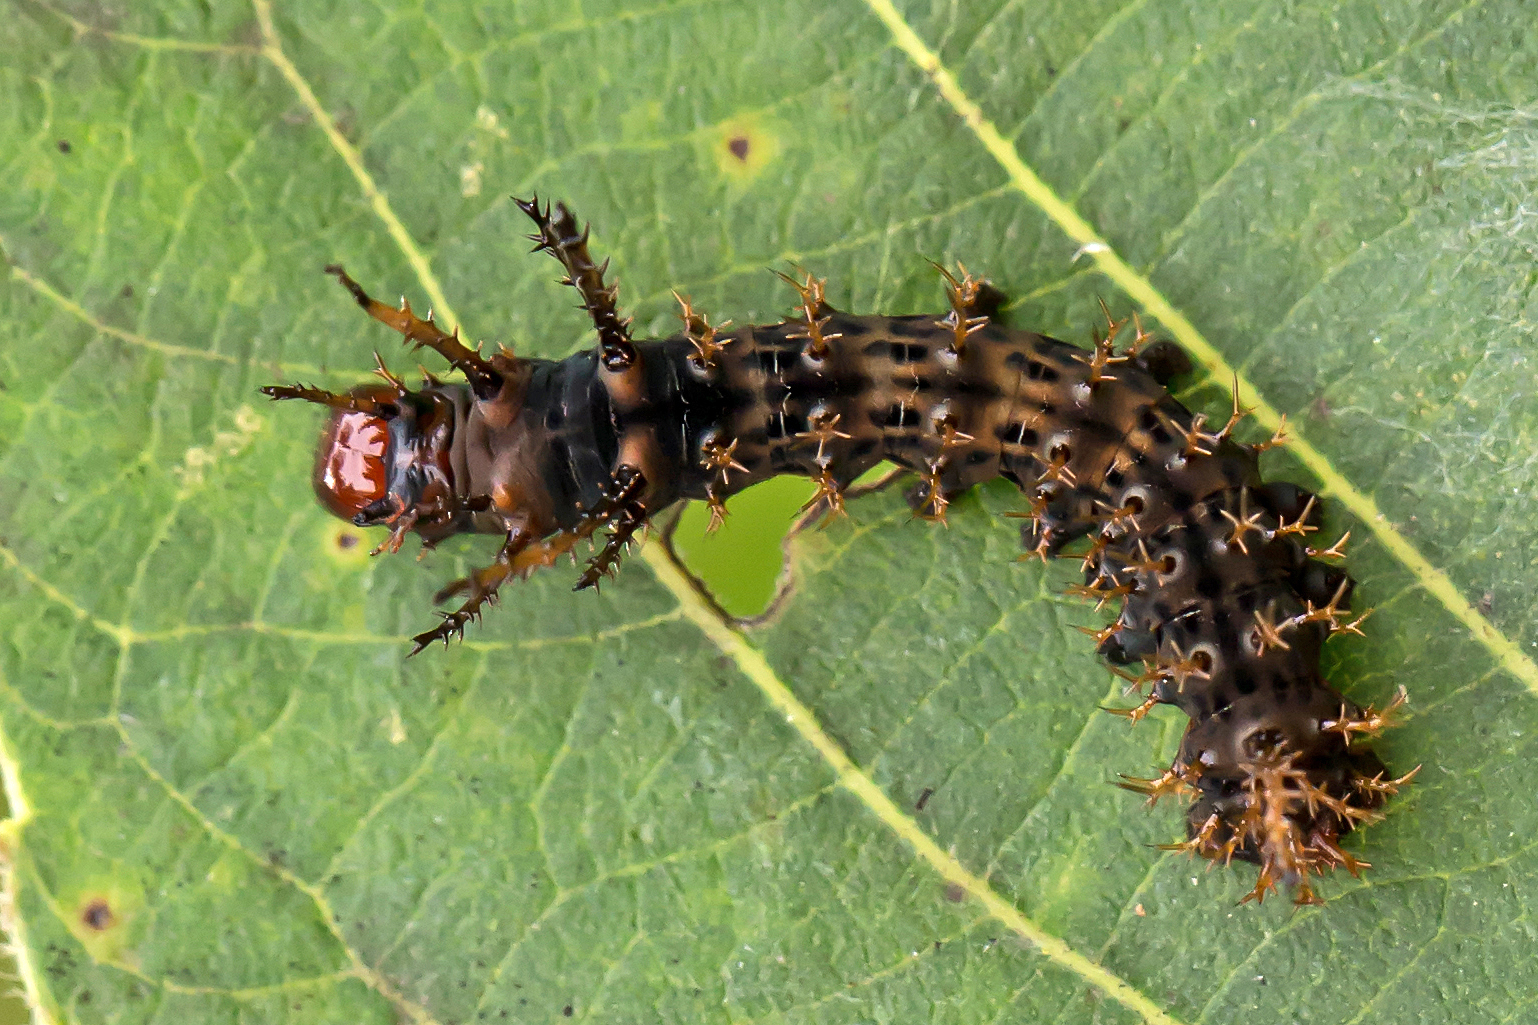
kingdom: Animalia
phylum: Arthropoda
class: Insecta
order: Lepidoptera
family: Saturniidae
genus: Citheronia
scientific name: Citheronia regalis
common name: Hickory horned devil
